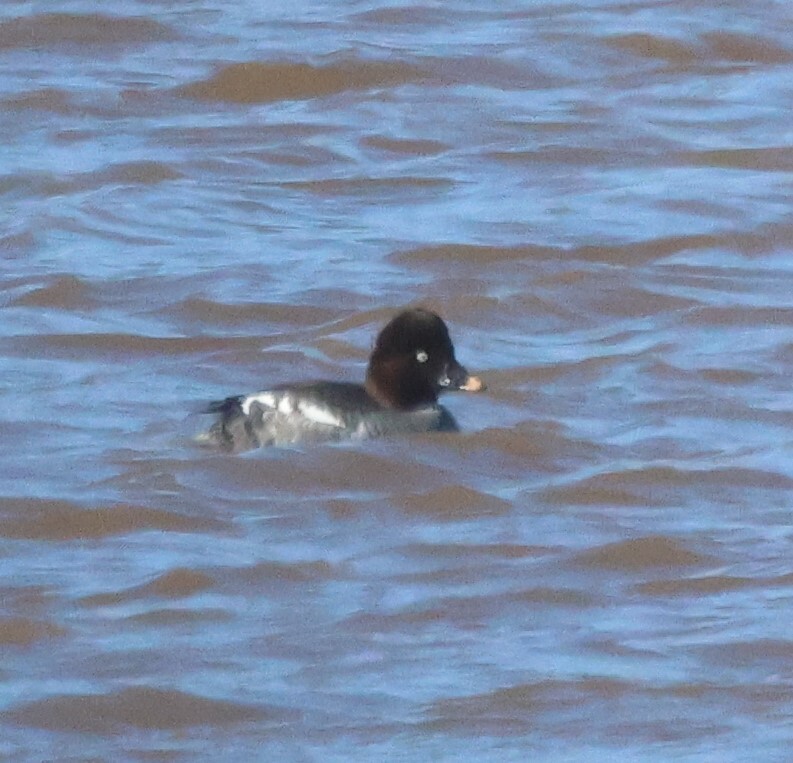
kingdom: Animalia
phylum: Chordata
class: Aves
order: Anseriformes
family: Anatidae
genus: Bucephala
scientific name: Bucephala clangula
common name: Common goldeneye
